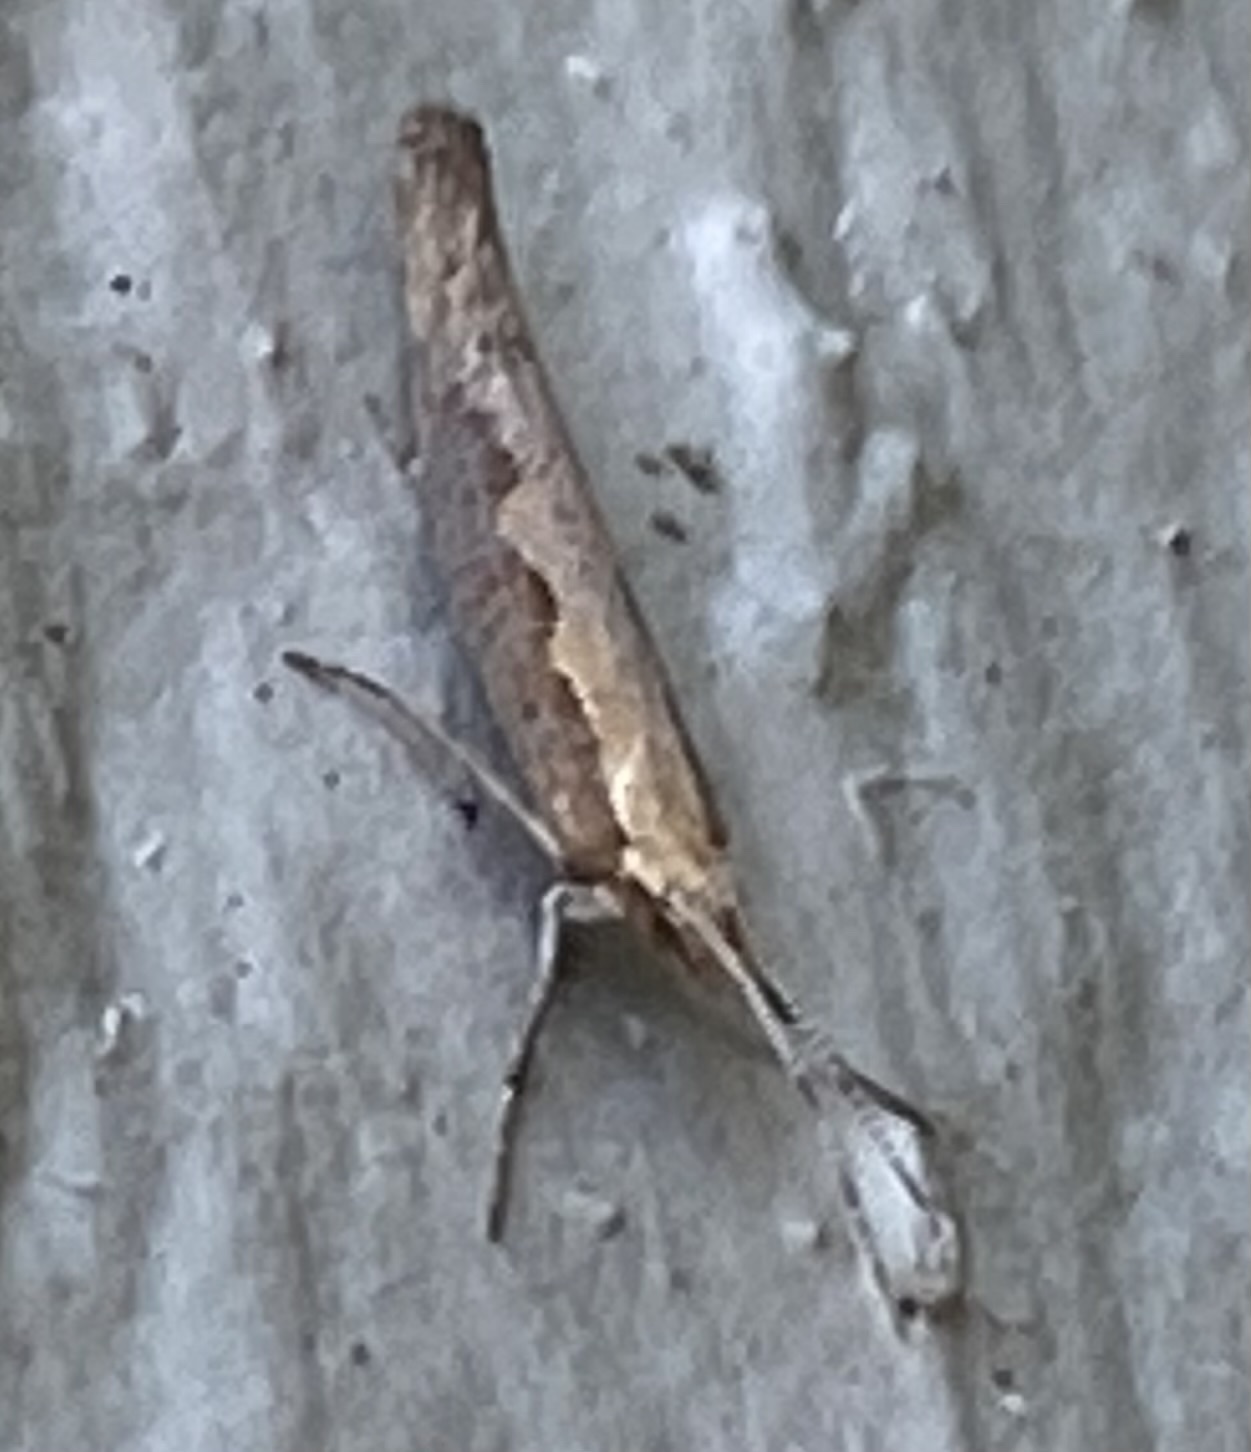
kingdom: Animalia
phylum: Arthropoda
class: Insecta
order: Lepidoptera
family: Plutellidae
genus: Plutella
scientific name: Plutella xylostella
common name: Diamond-back moth
